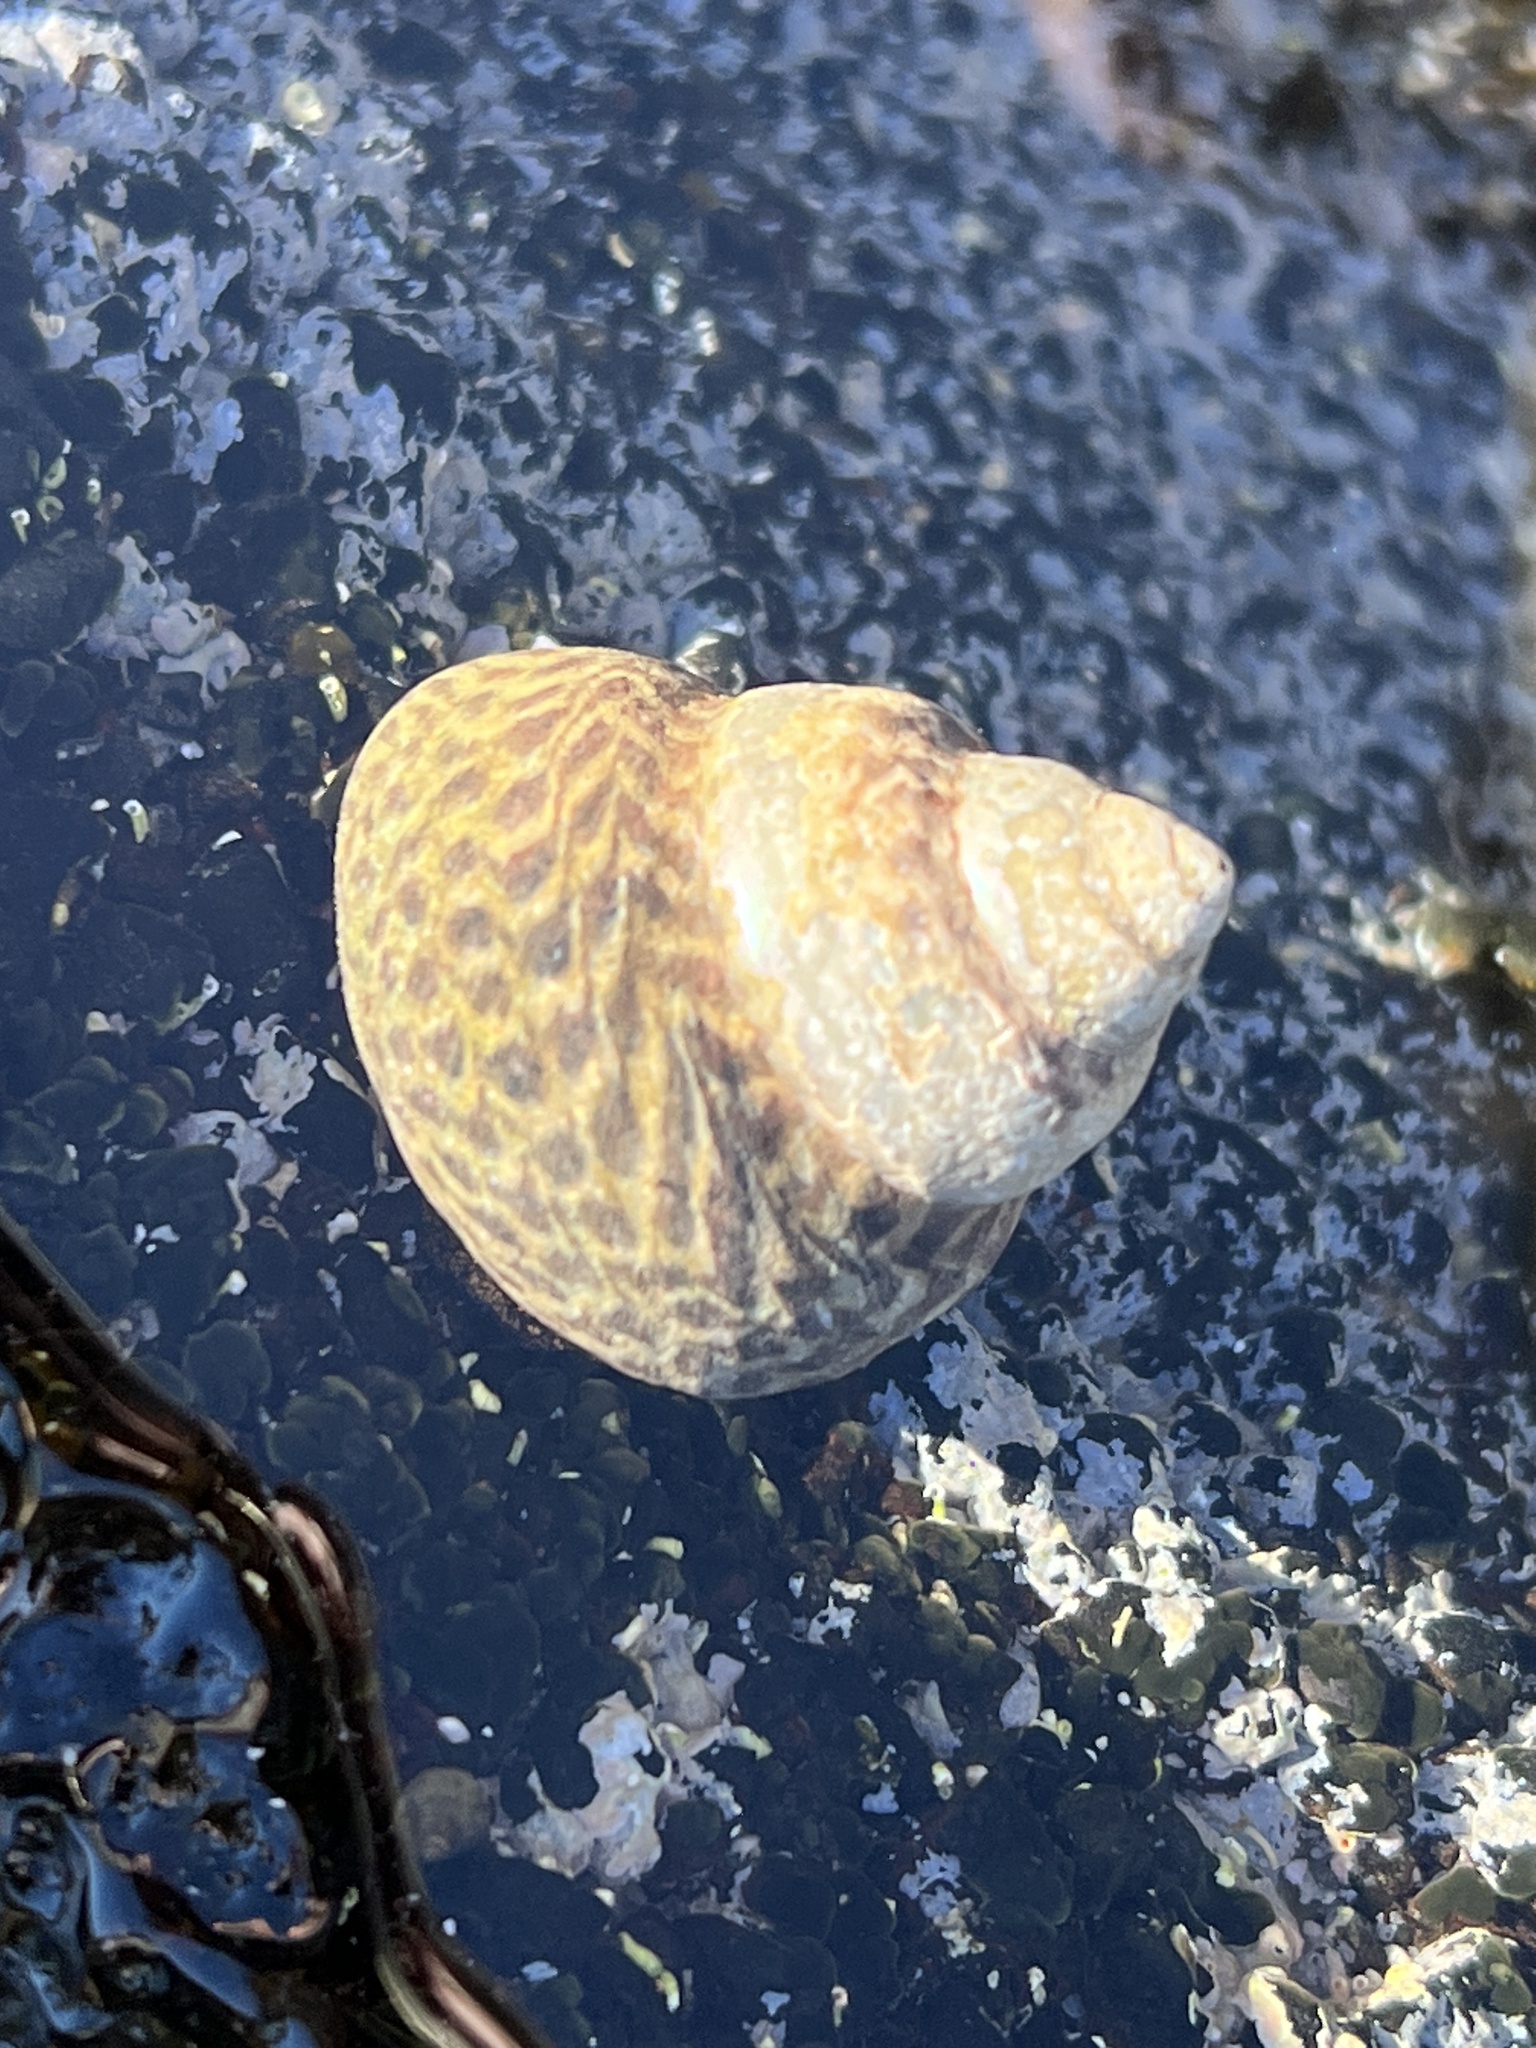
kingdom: Animalia
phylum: Mollusca
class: Gastropoda
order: Trochida
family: Trochidae
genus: Phorcus
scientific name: Phorcus sauciatus
